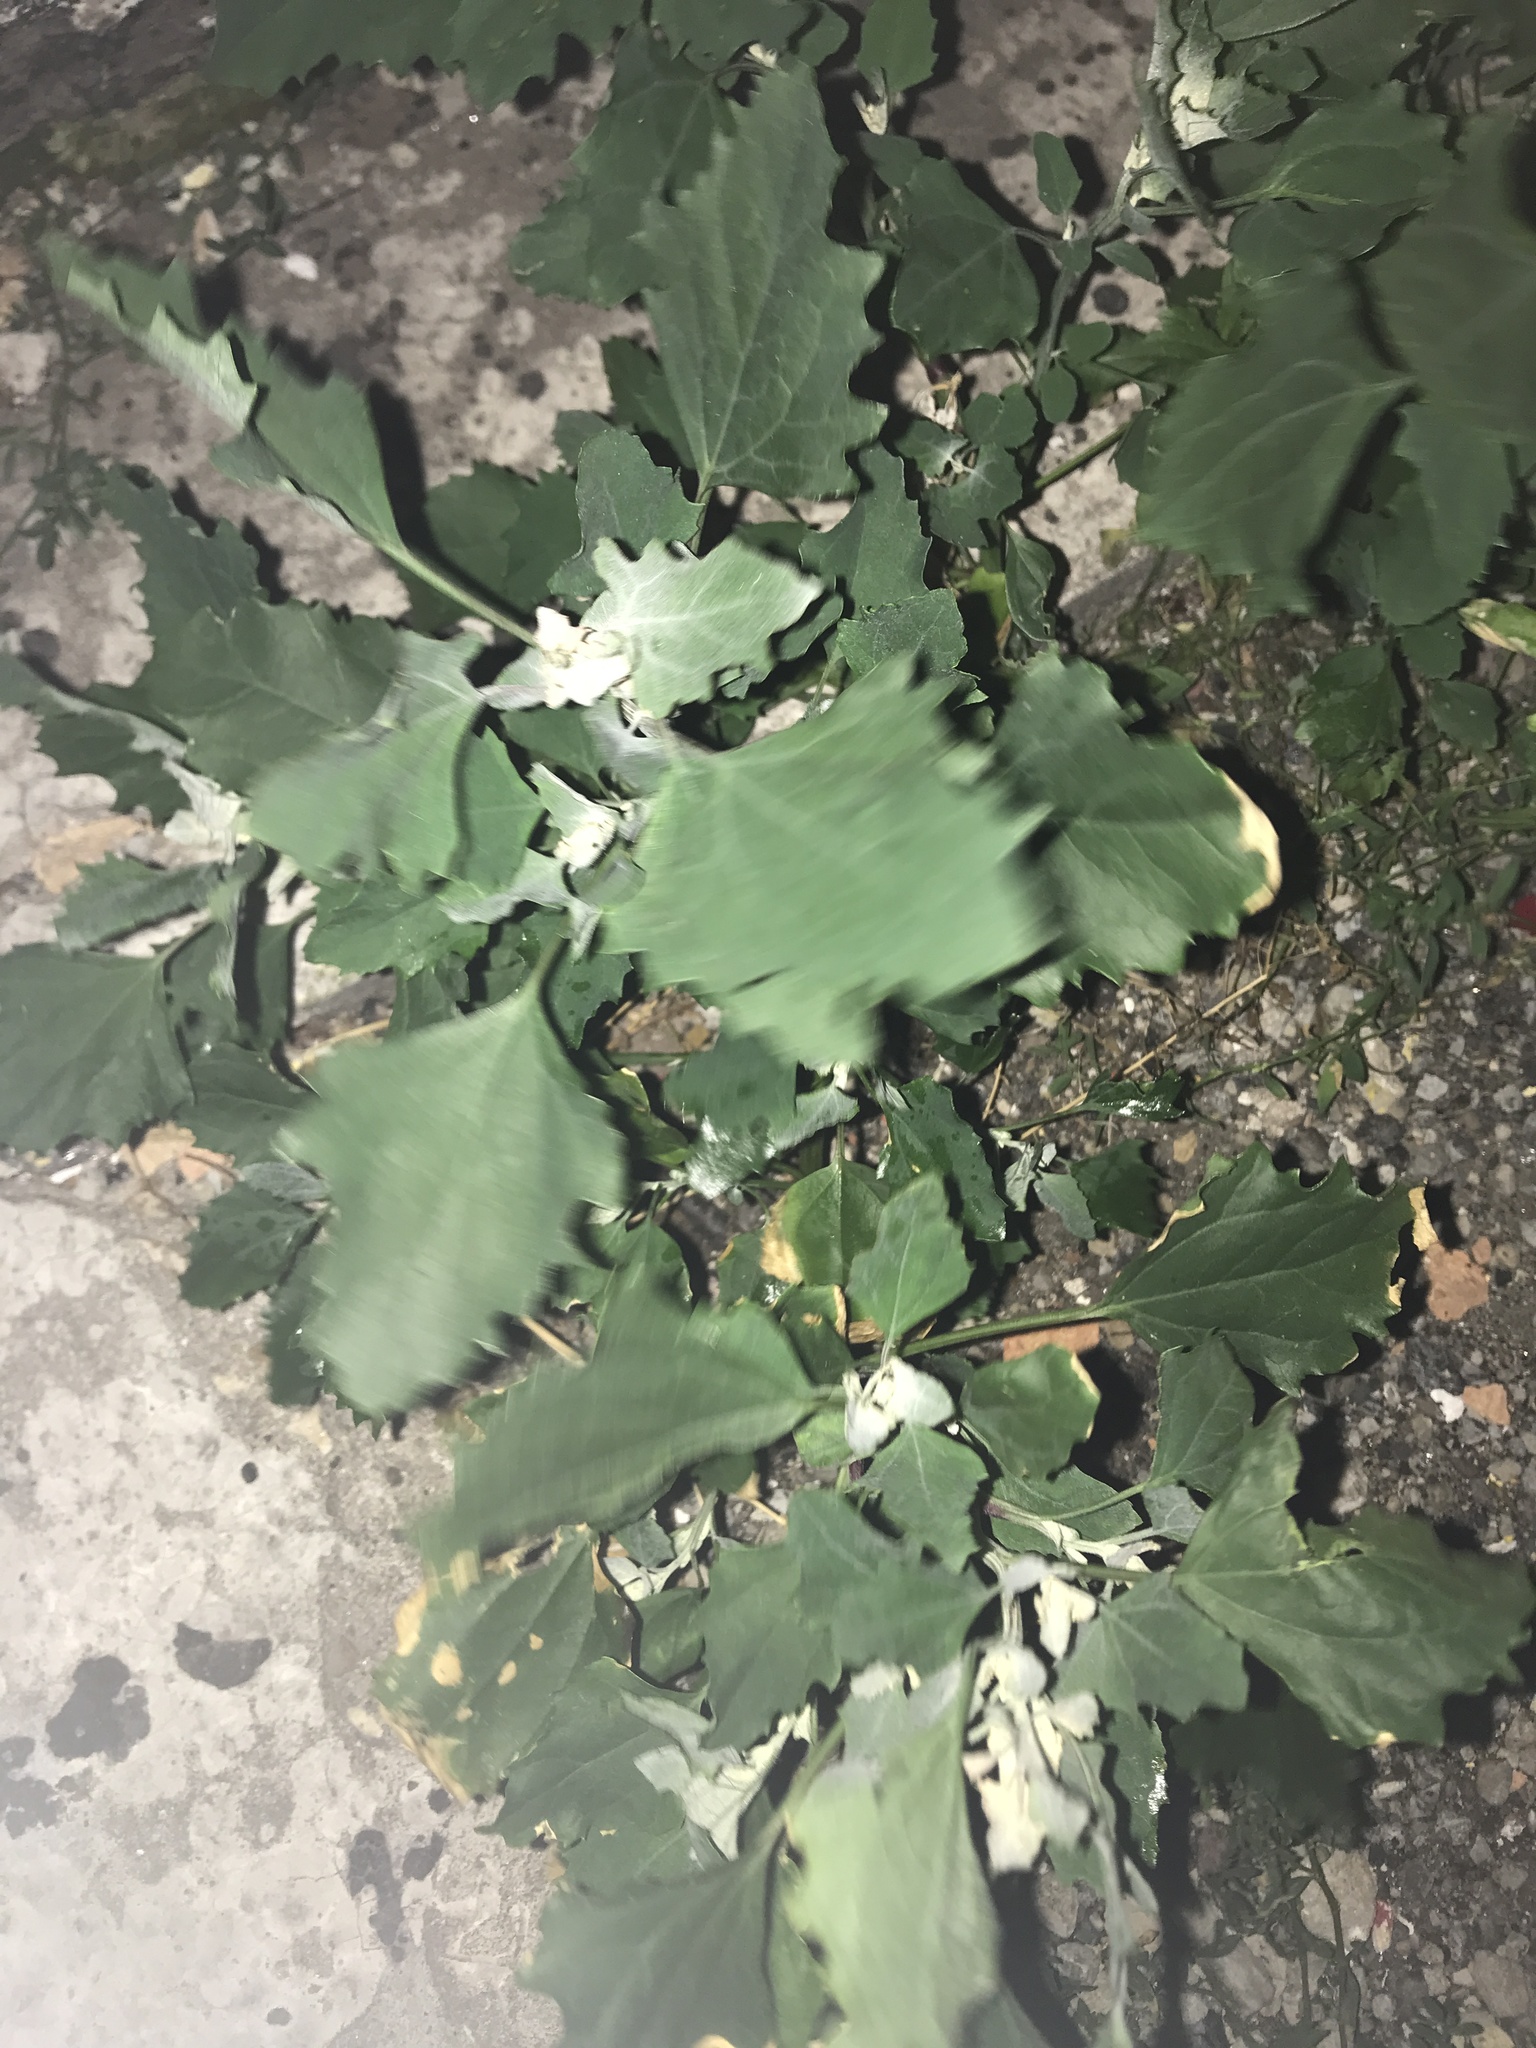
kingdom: Plantae
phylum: Tracheophyta
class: Magnoliopsida
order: Caryophyllales
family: Amaranthaceae
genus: Chenopodium
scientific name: Chenopodium album
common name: Fat-hen
